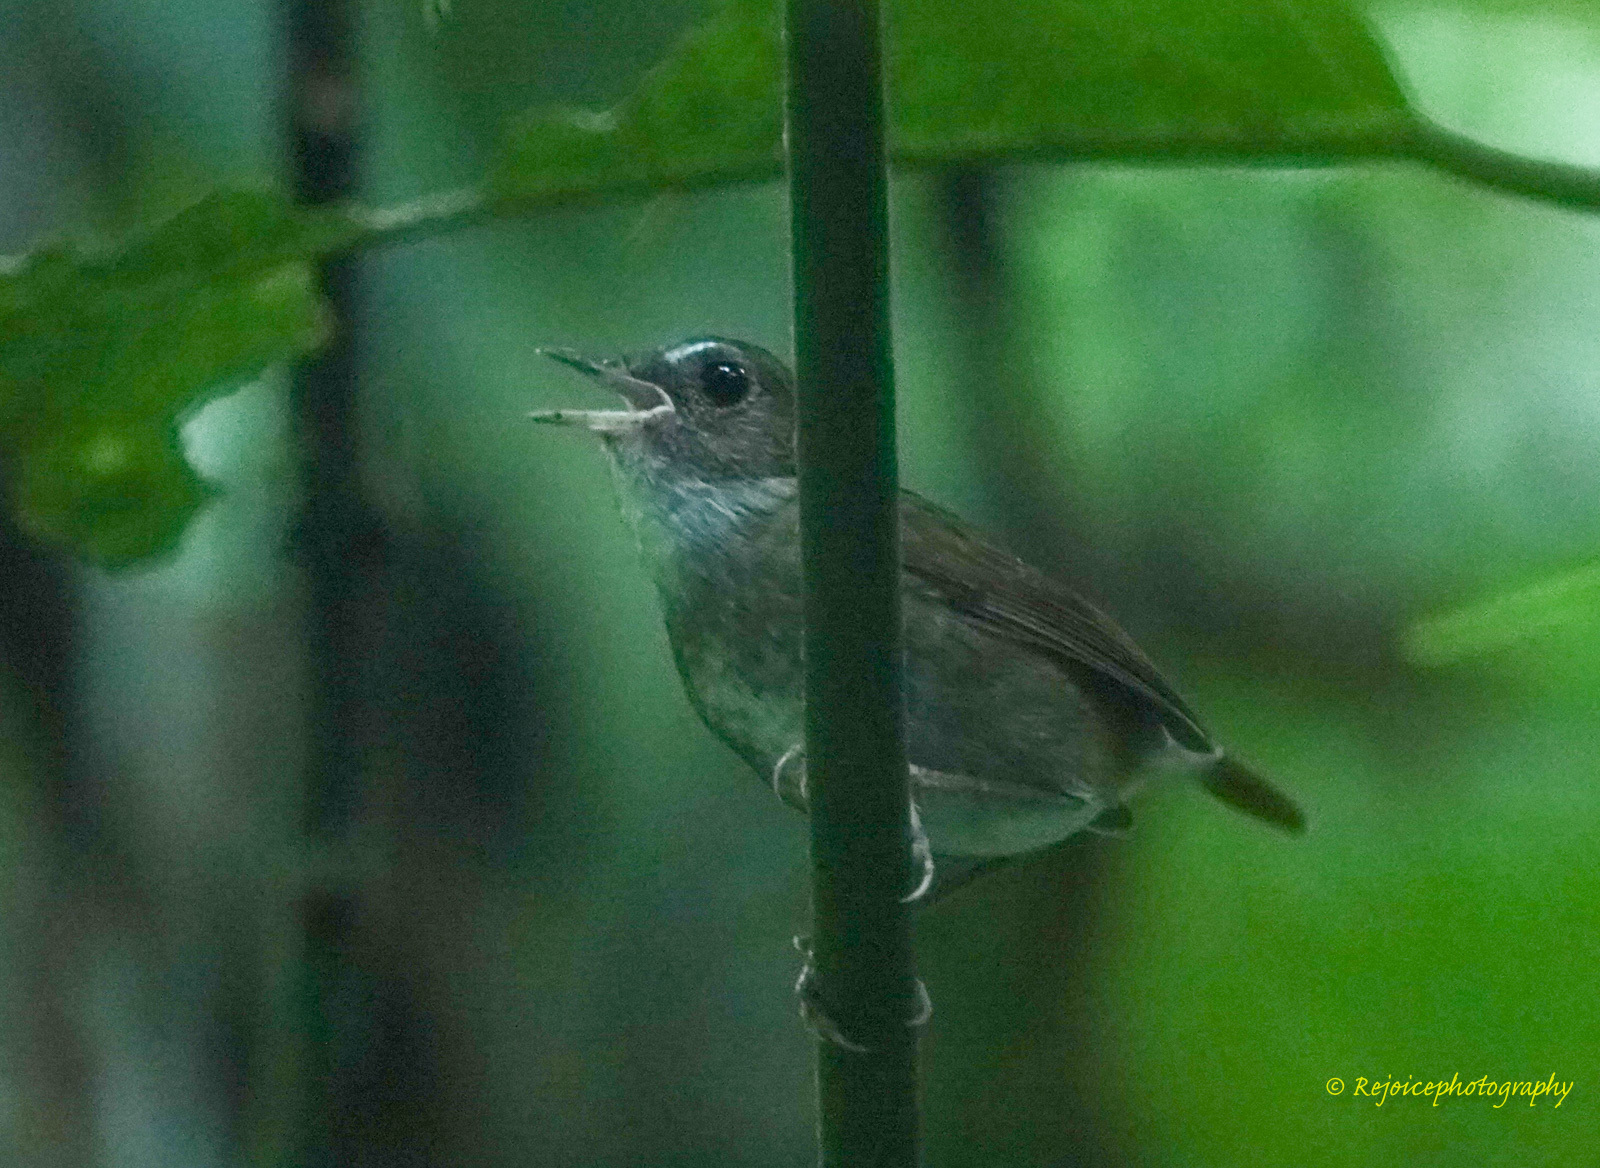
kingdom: Animalia
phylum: Chordata
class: Aves
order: Passeriformes
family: Muscicapidae
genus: Brachypteryx
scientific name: Brachypteryx leucophris
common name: Lesser shortwing
